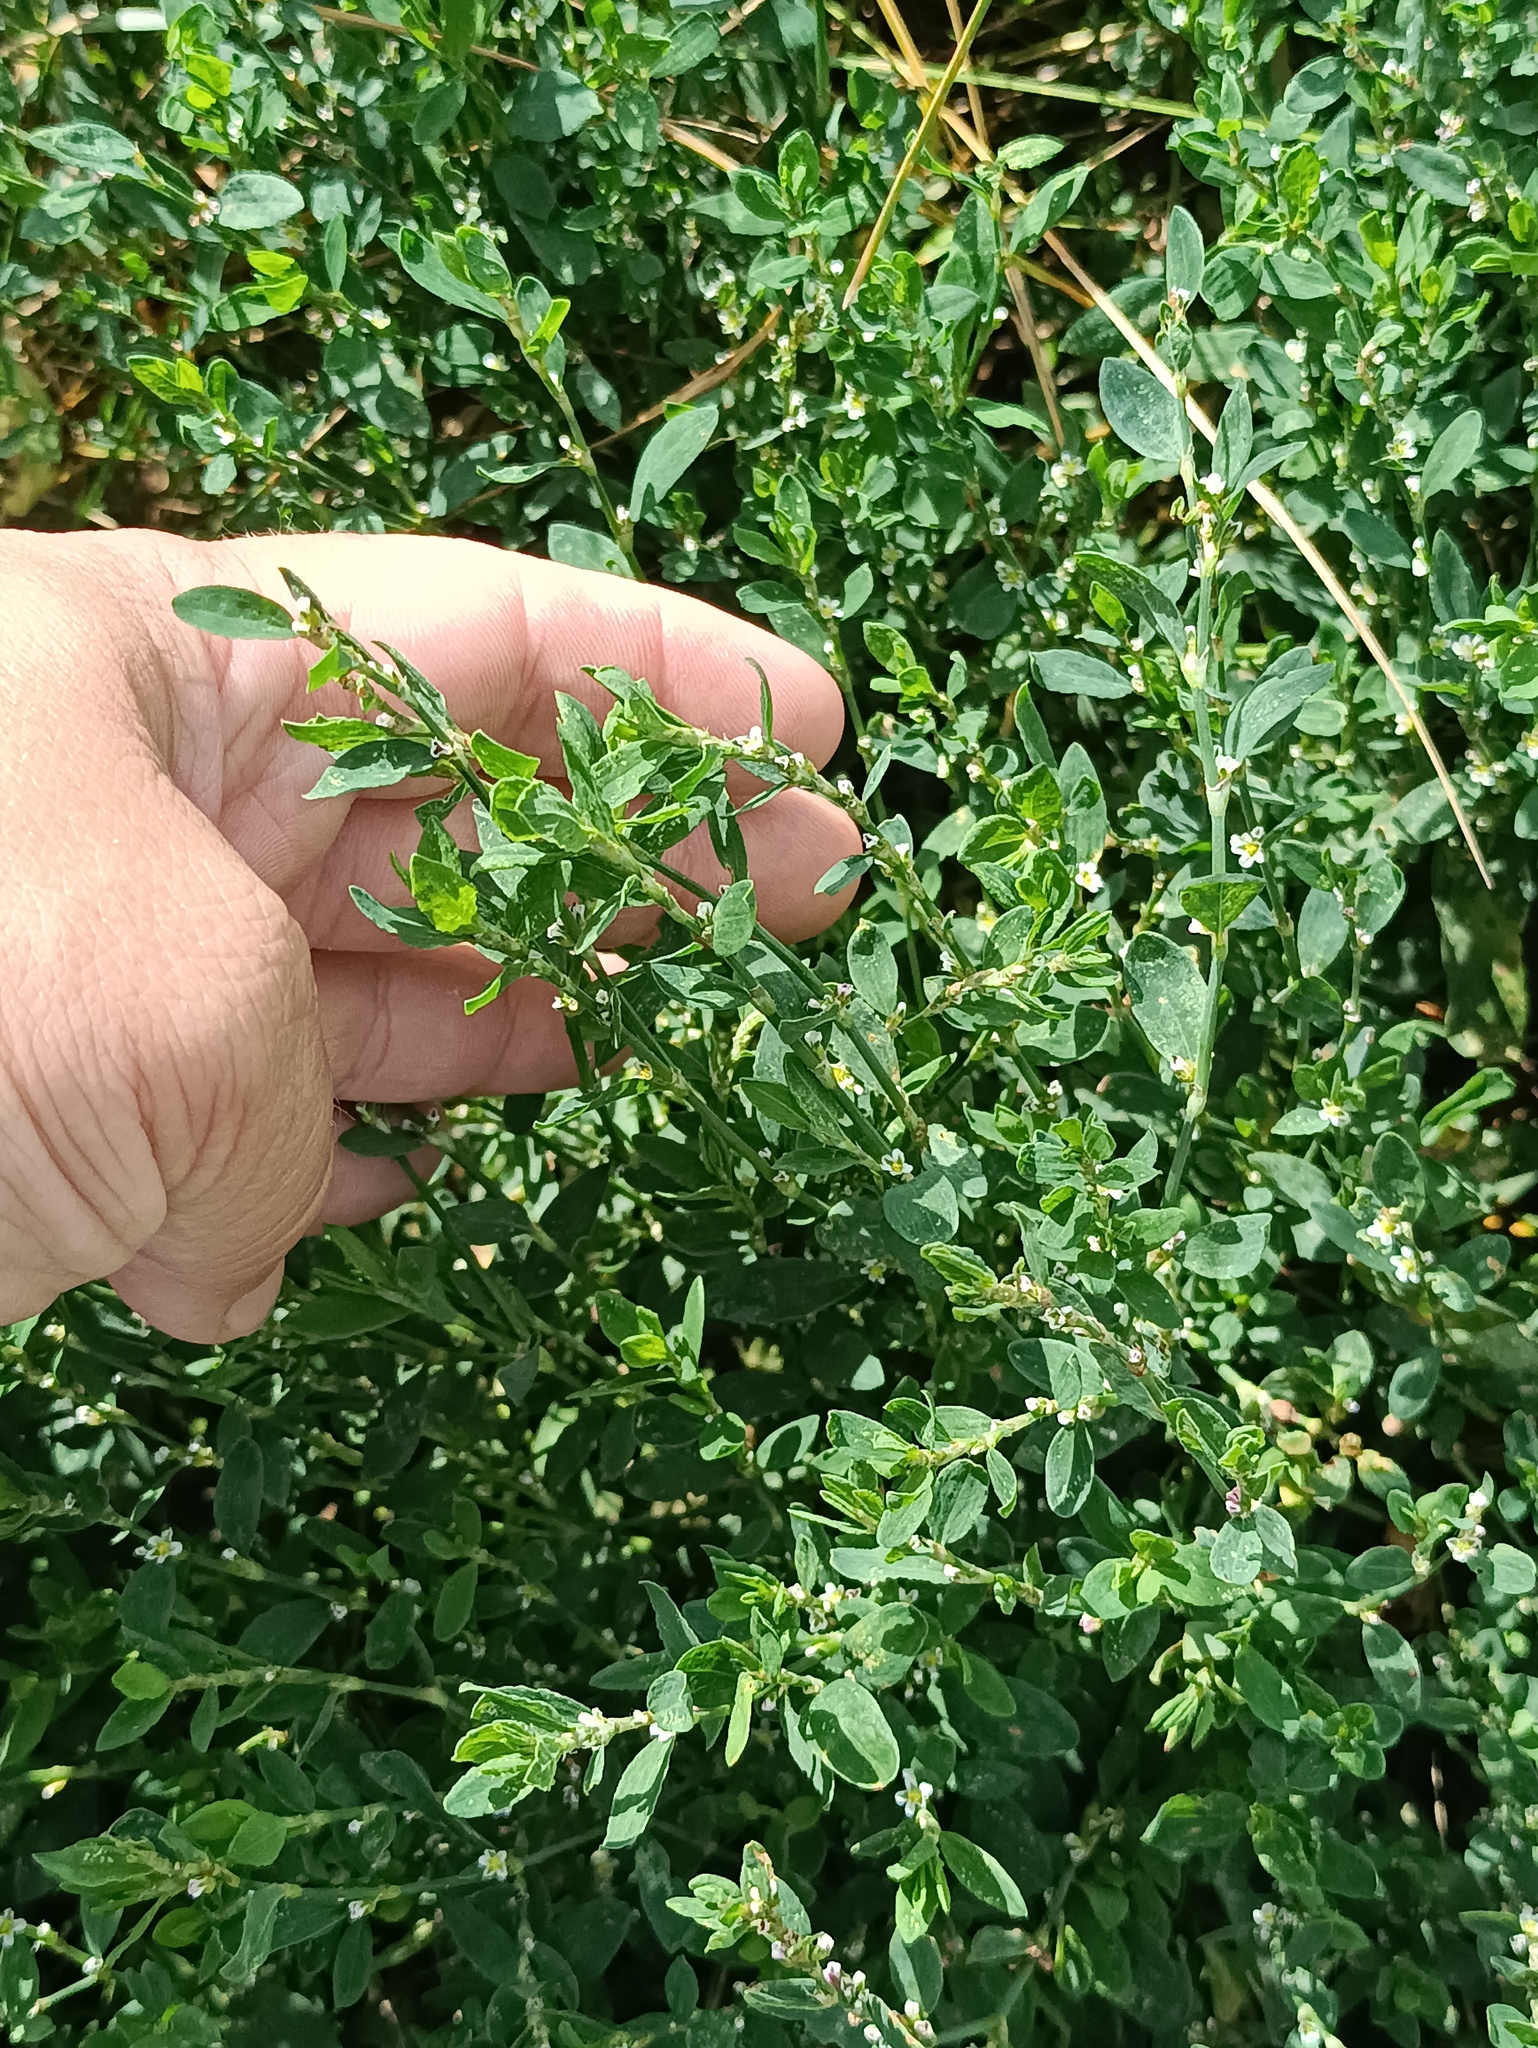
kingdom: Plantae
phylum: Tracheophyta
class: Magnoliopsida
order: Caryophyllales
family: Polygonaceae
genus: Polygonum
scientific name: Polygonum
